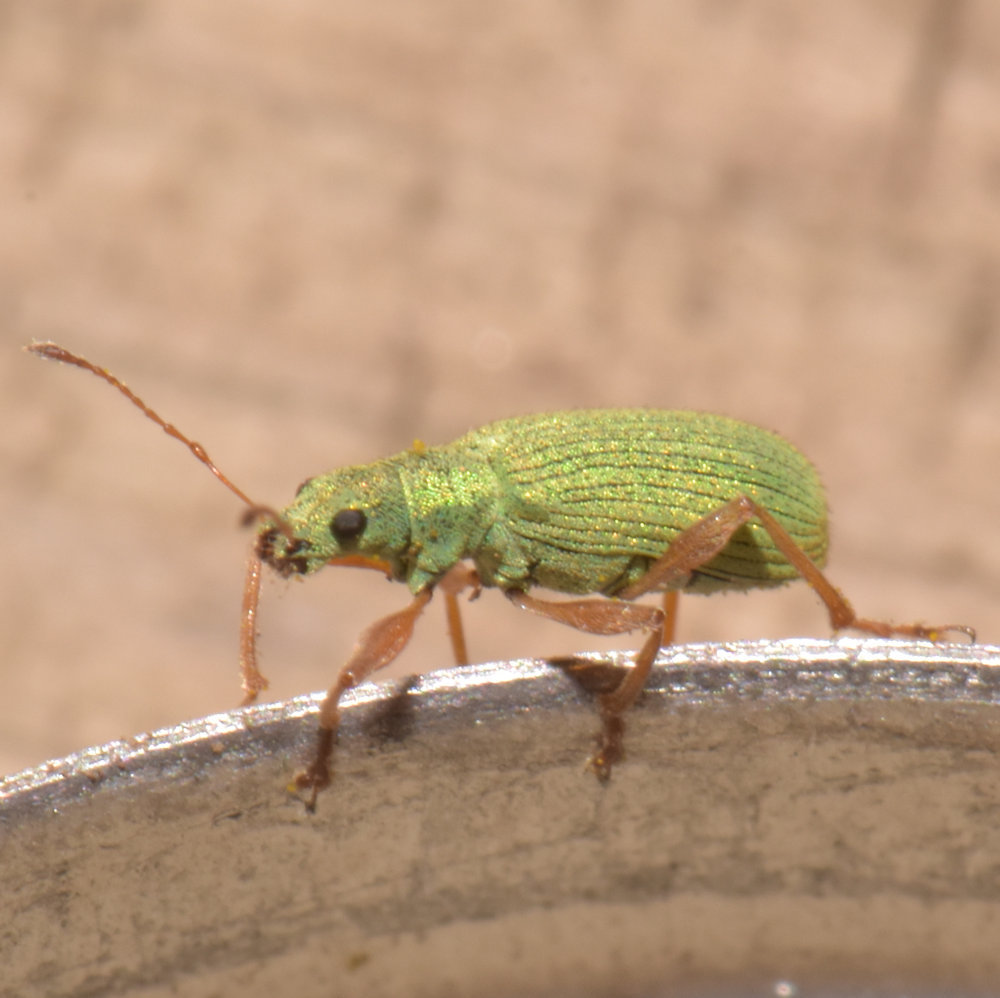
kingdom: Animalia
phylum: Arthropoda
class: Insecta
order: Coleoptera
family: Curculionidae
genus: Polydrusus
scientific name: Polydrusus impressifrons
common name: Weevil
